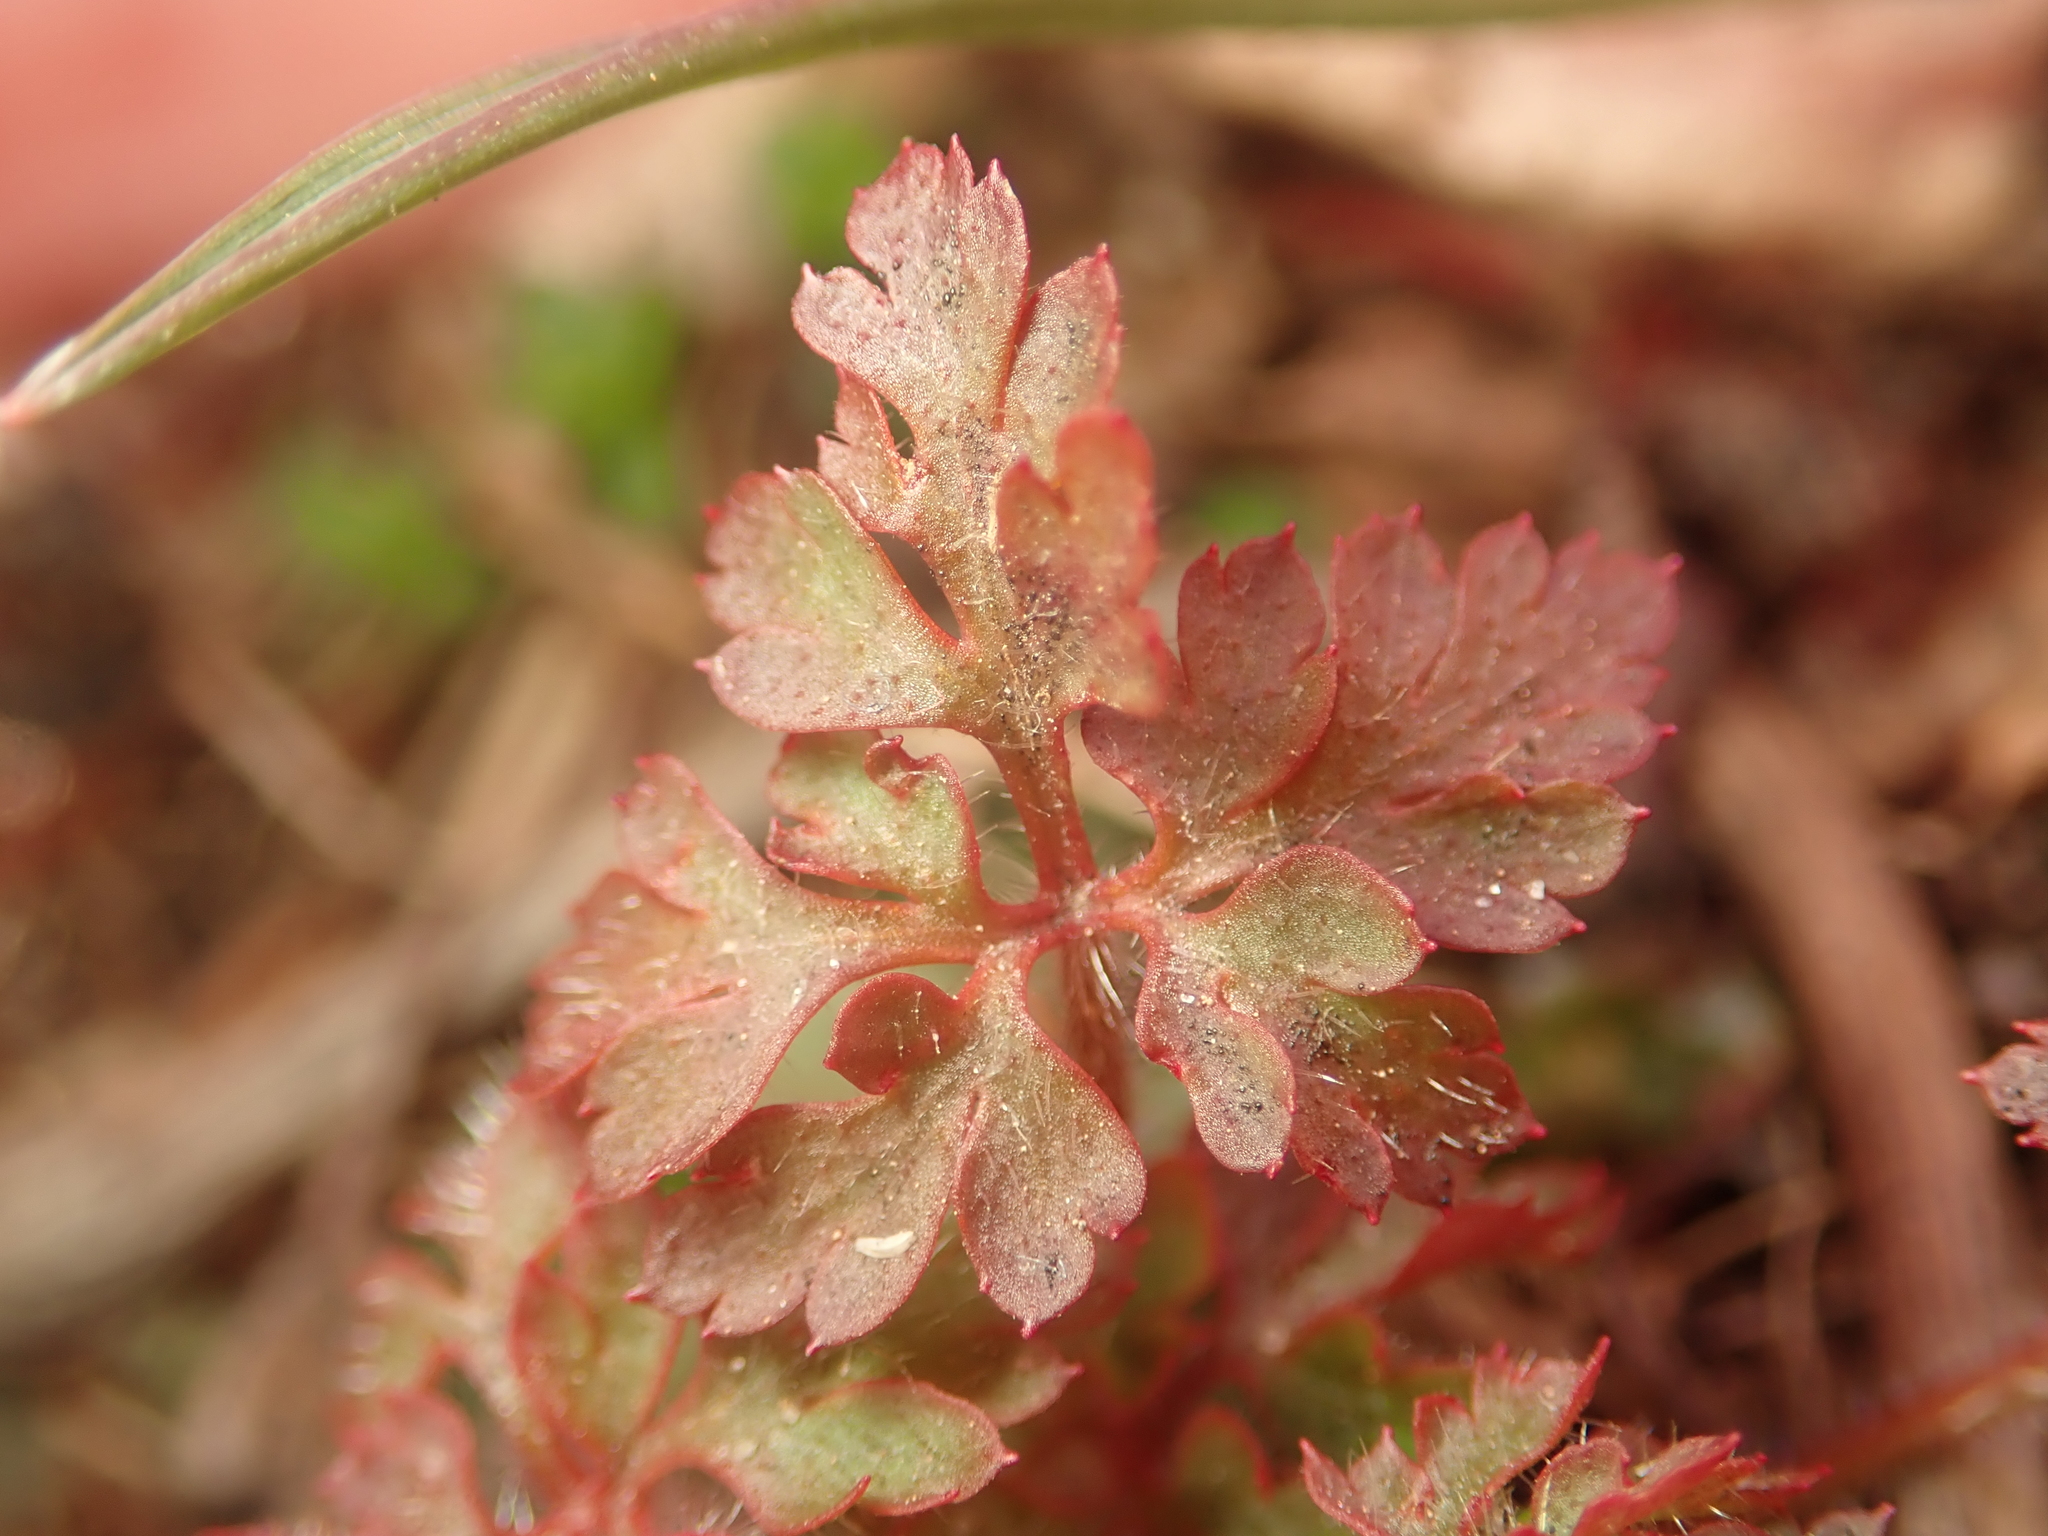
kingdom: Plantae
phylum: Tracheophyta
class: Magnoliopsida
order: Geraniales
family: Geraniaceae
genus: Geranium
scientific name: Geranium robertianum
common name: Herb-robert
